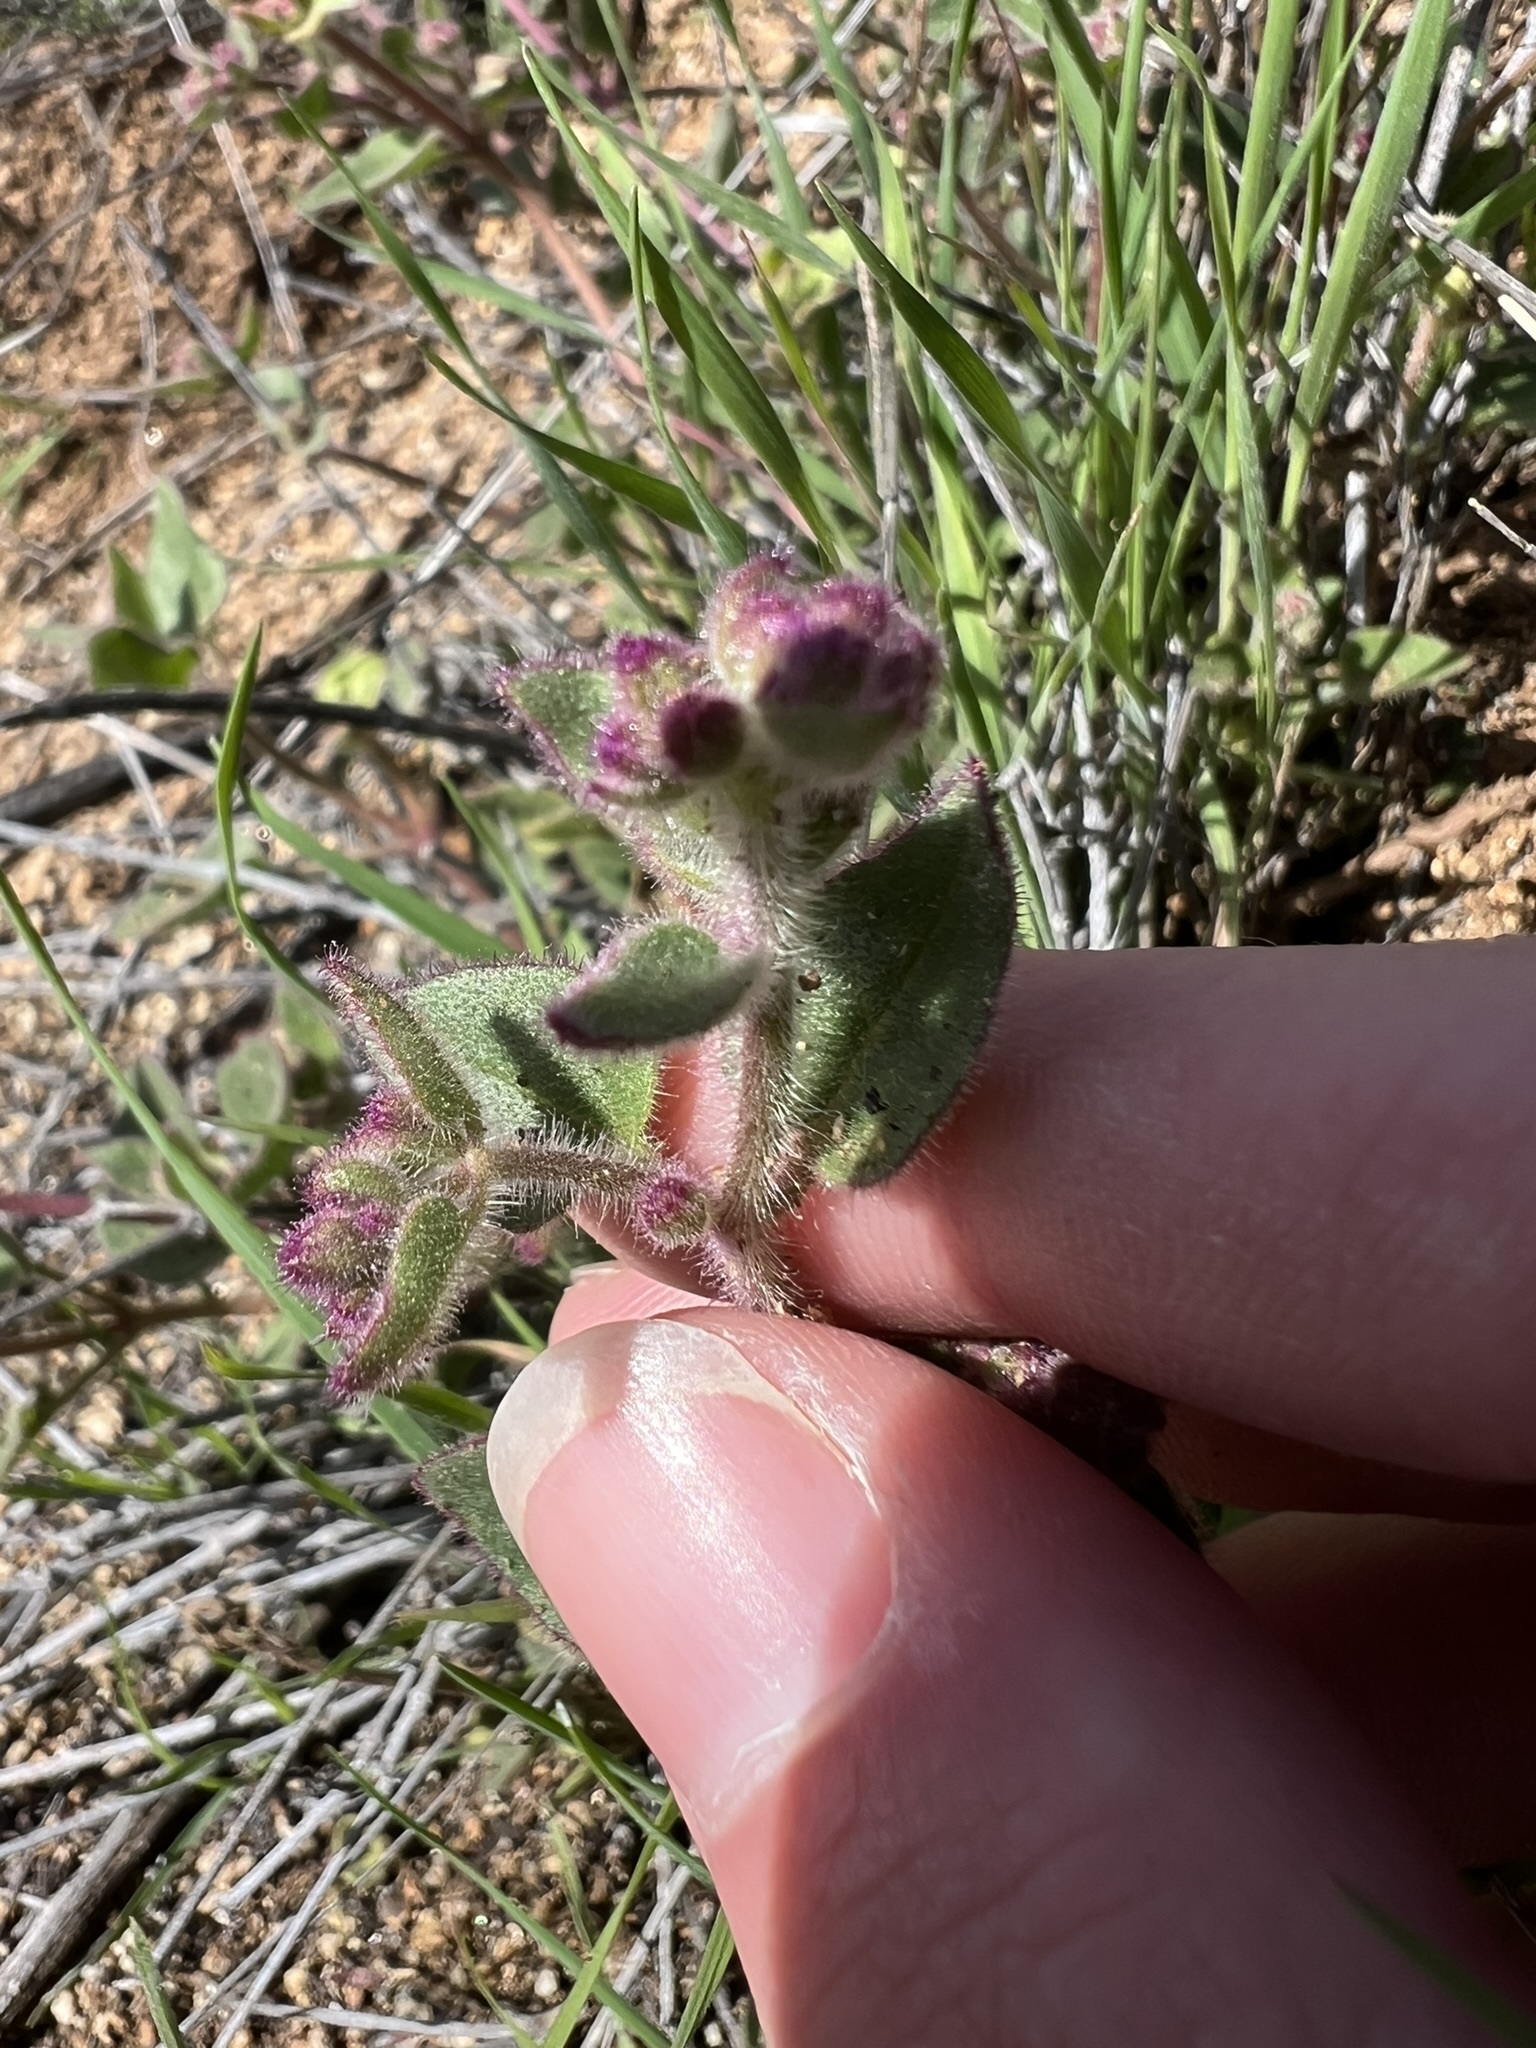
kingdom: Plantae
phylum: Tracheophyta
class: Magnoliopsida
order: Caryophyllales
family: Nyctaginaceae
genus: Mirabilis
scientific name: Mirabilis laevis
